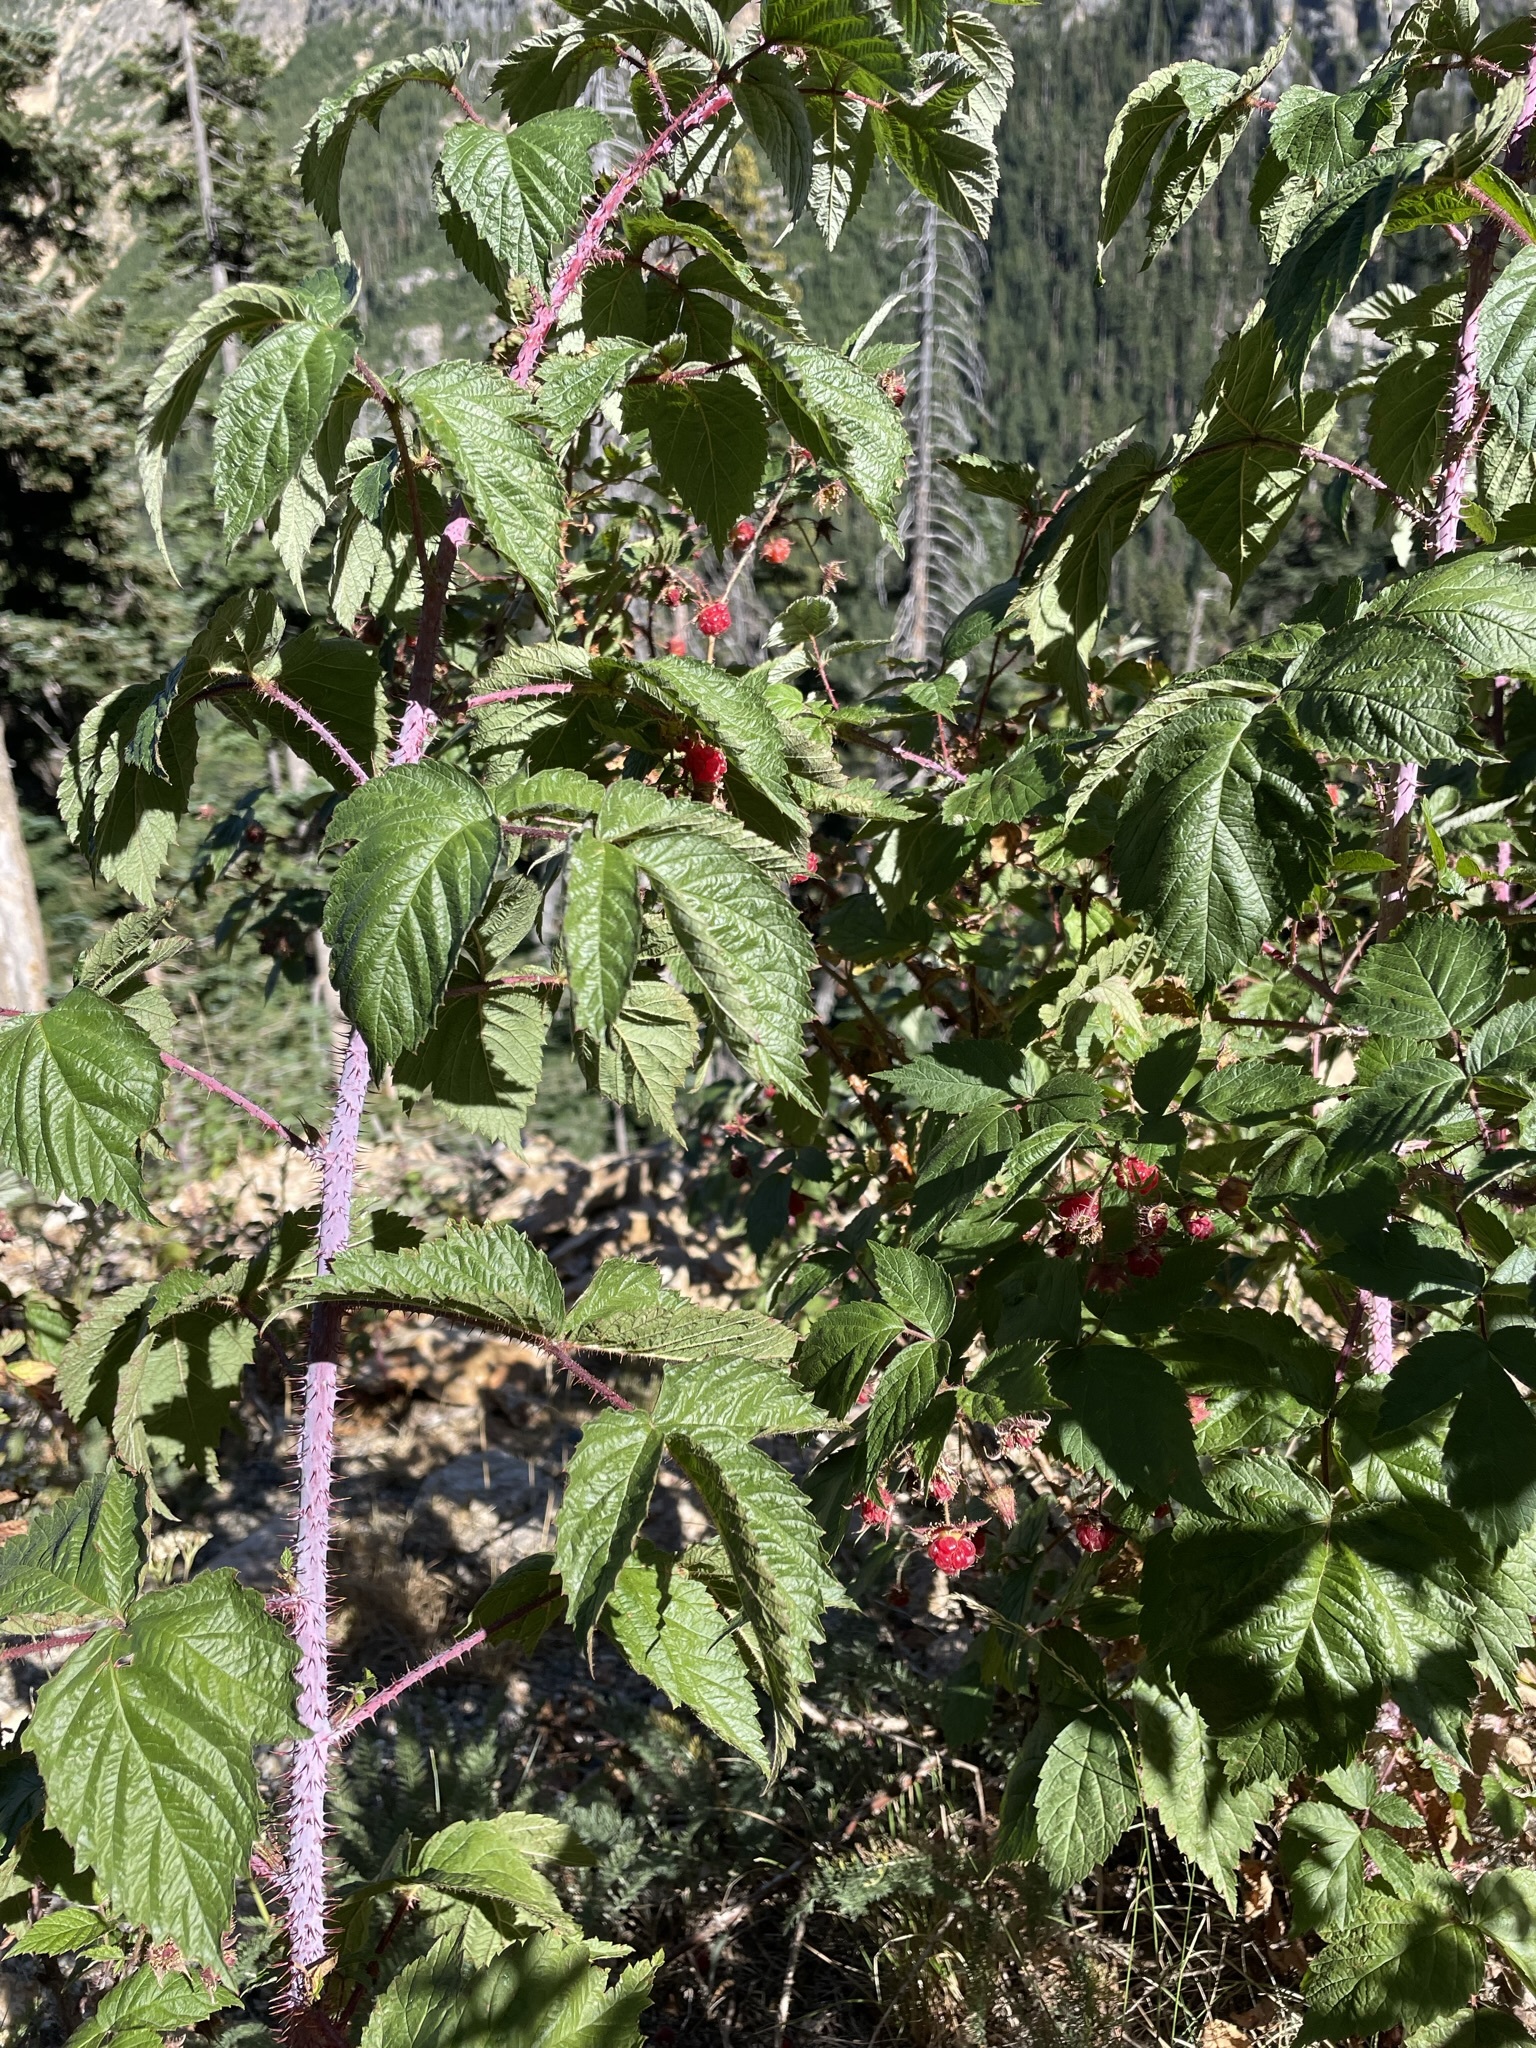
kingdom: Plantae
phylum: Tracheophyta
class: Magnoliopsida
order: Rosales
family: Rosaceae
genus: Rubus
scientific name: Rubus idaeus
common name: Raspberry
